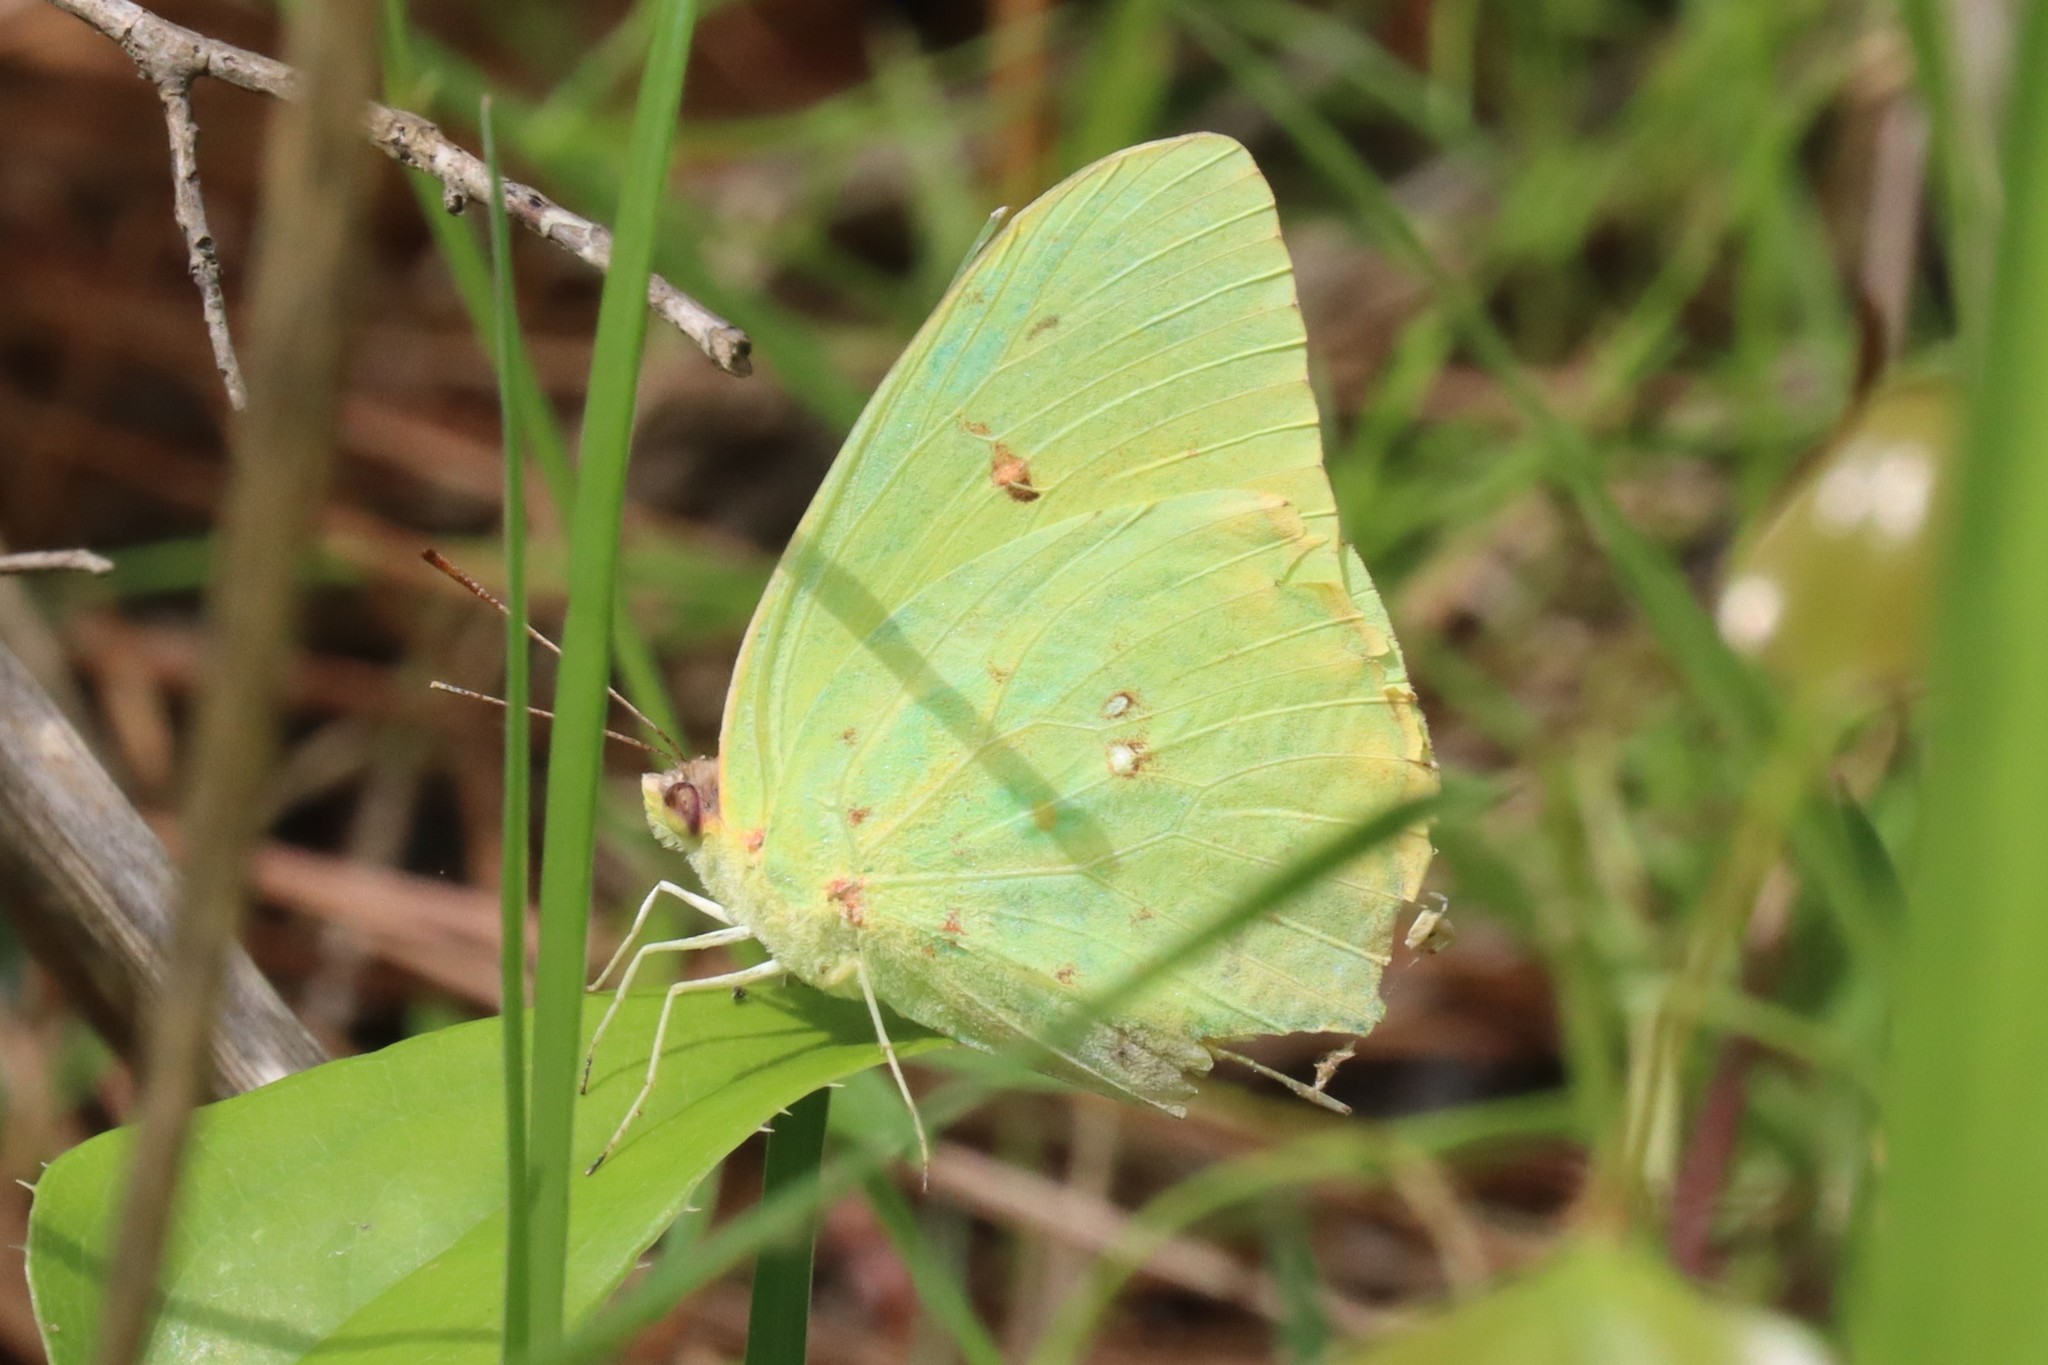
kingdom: Animalia
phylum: Arthropoda
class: Insecta
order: Lepidoptera
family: Pieridae
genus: Phoebis
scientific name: Phoebis sennae
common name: Cloudless sulphur
